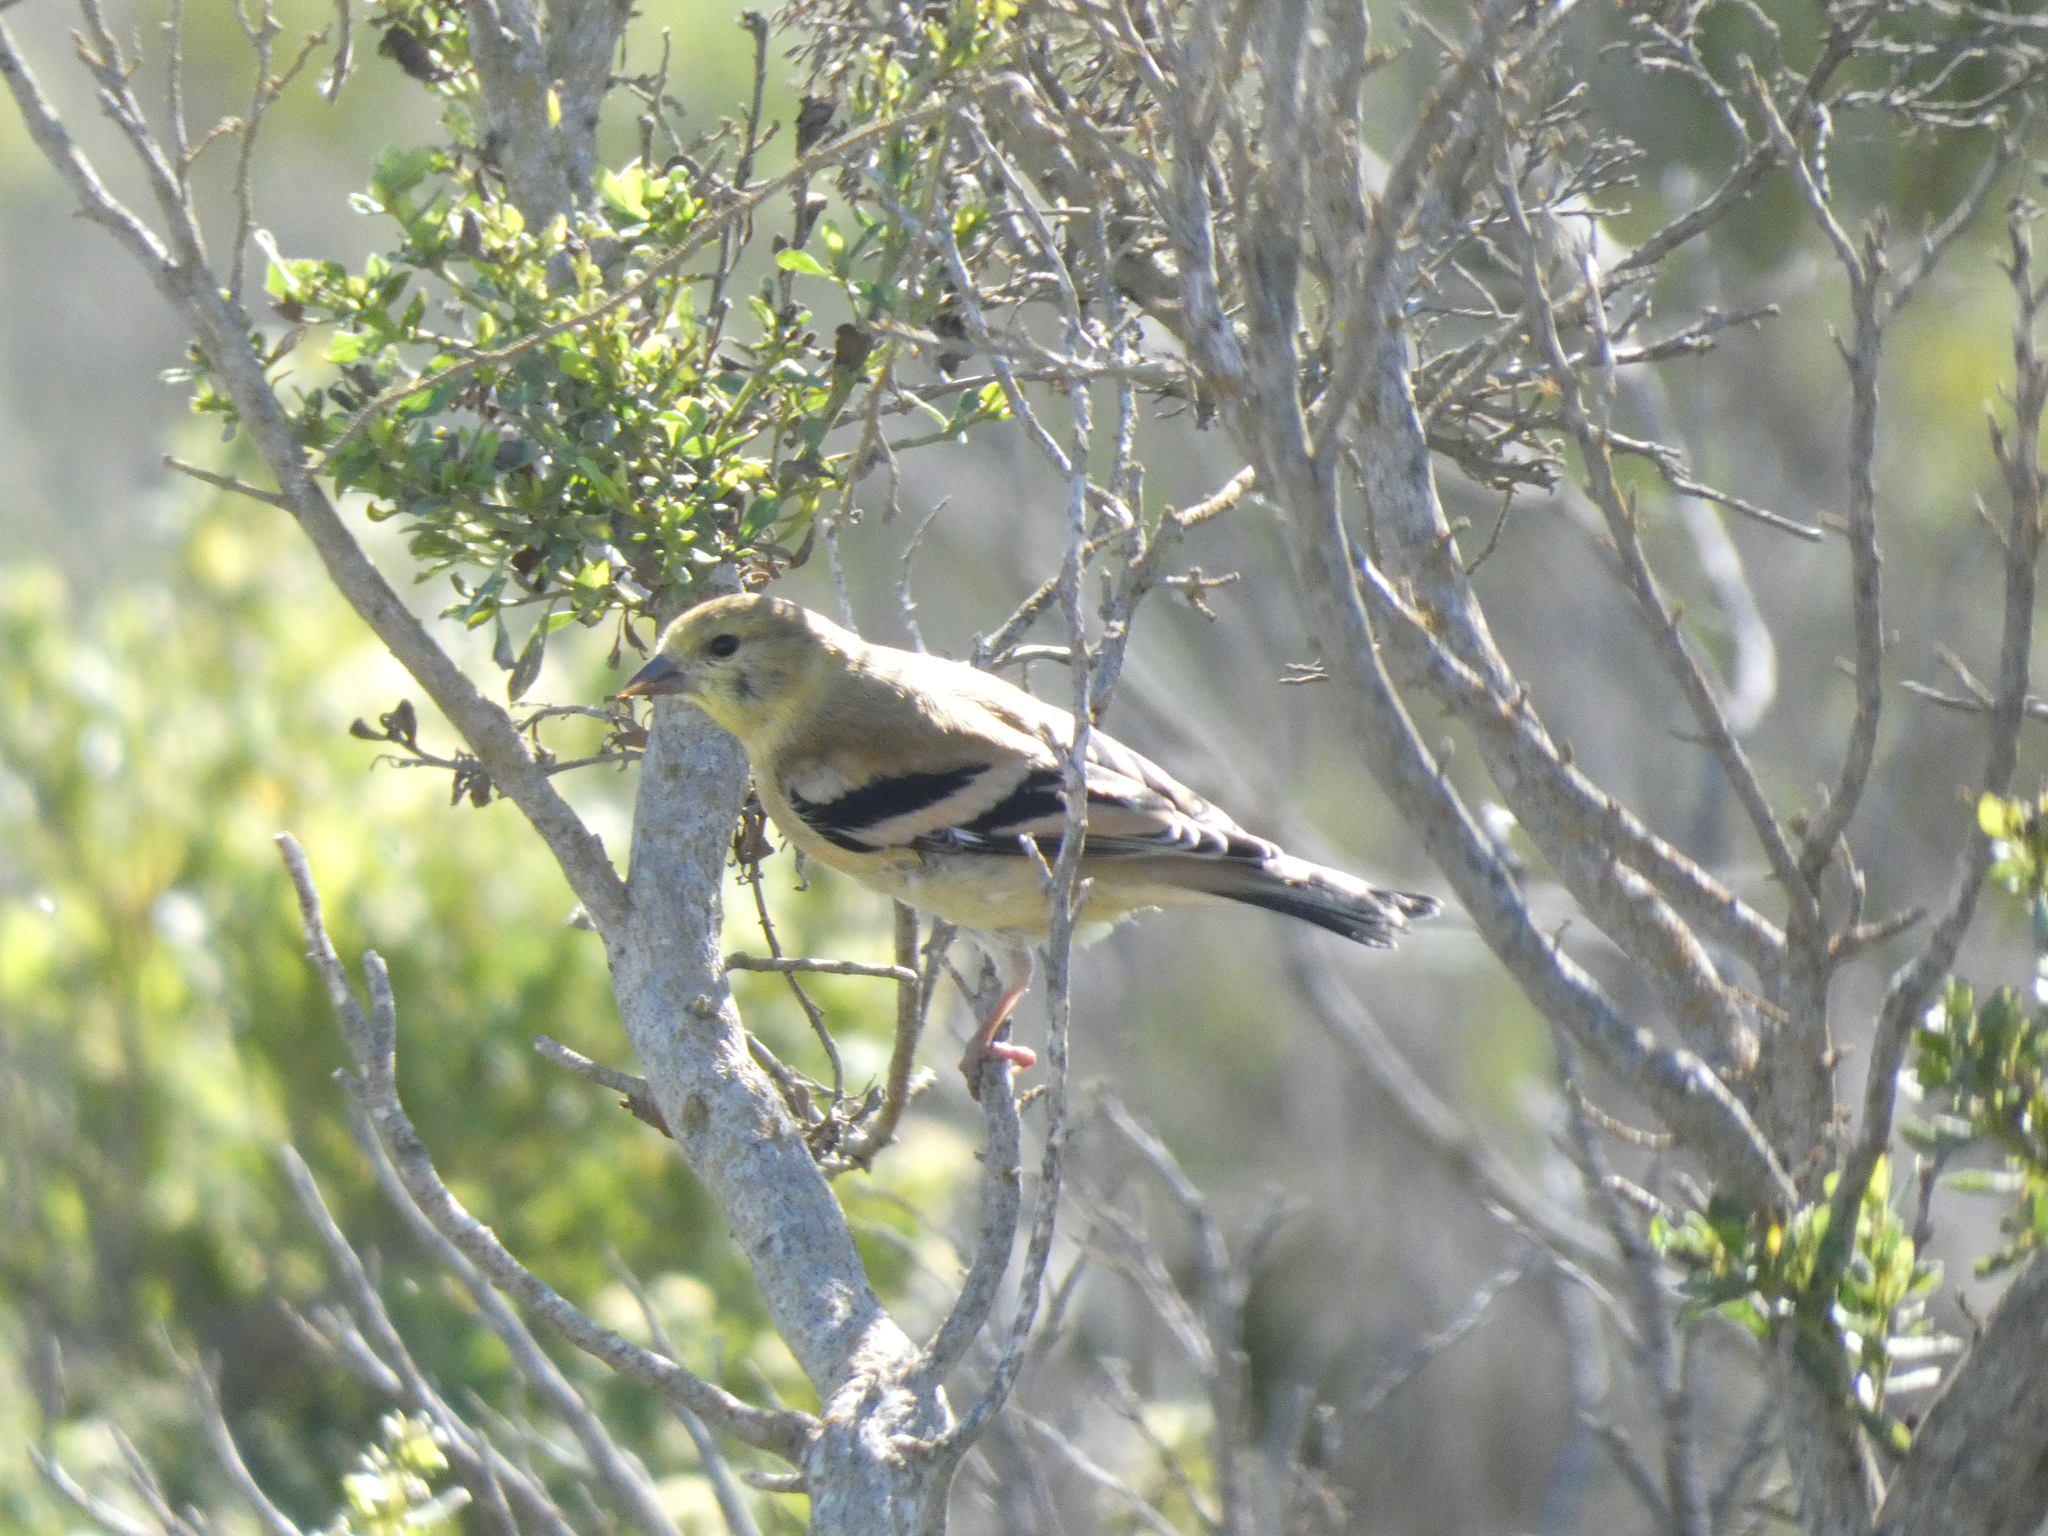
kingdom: Animalia
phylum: Chordata
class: Aves
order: Passeriformes
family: Fringillidae
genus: Spinus
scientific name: Spinus tristis
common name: American goldfinch
